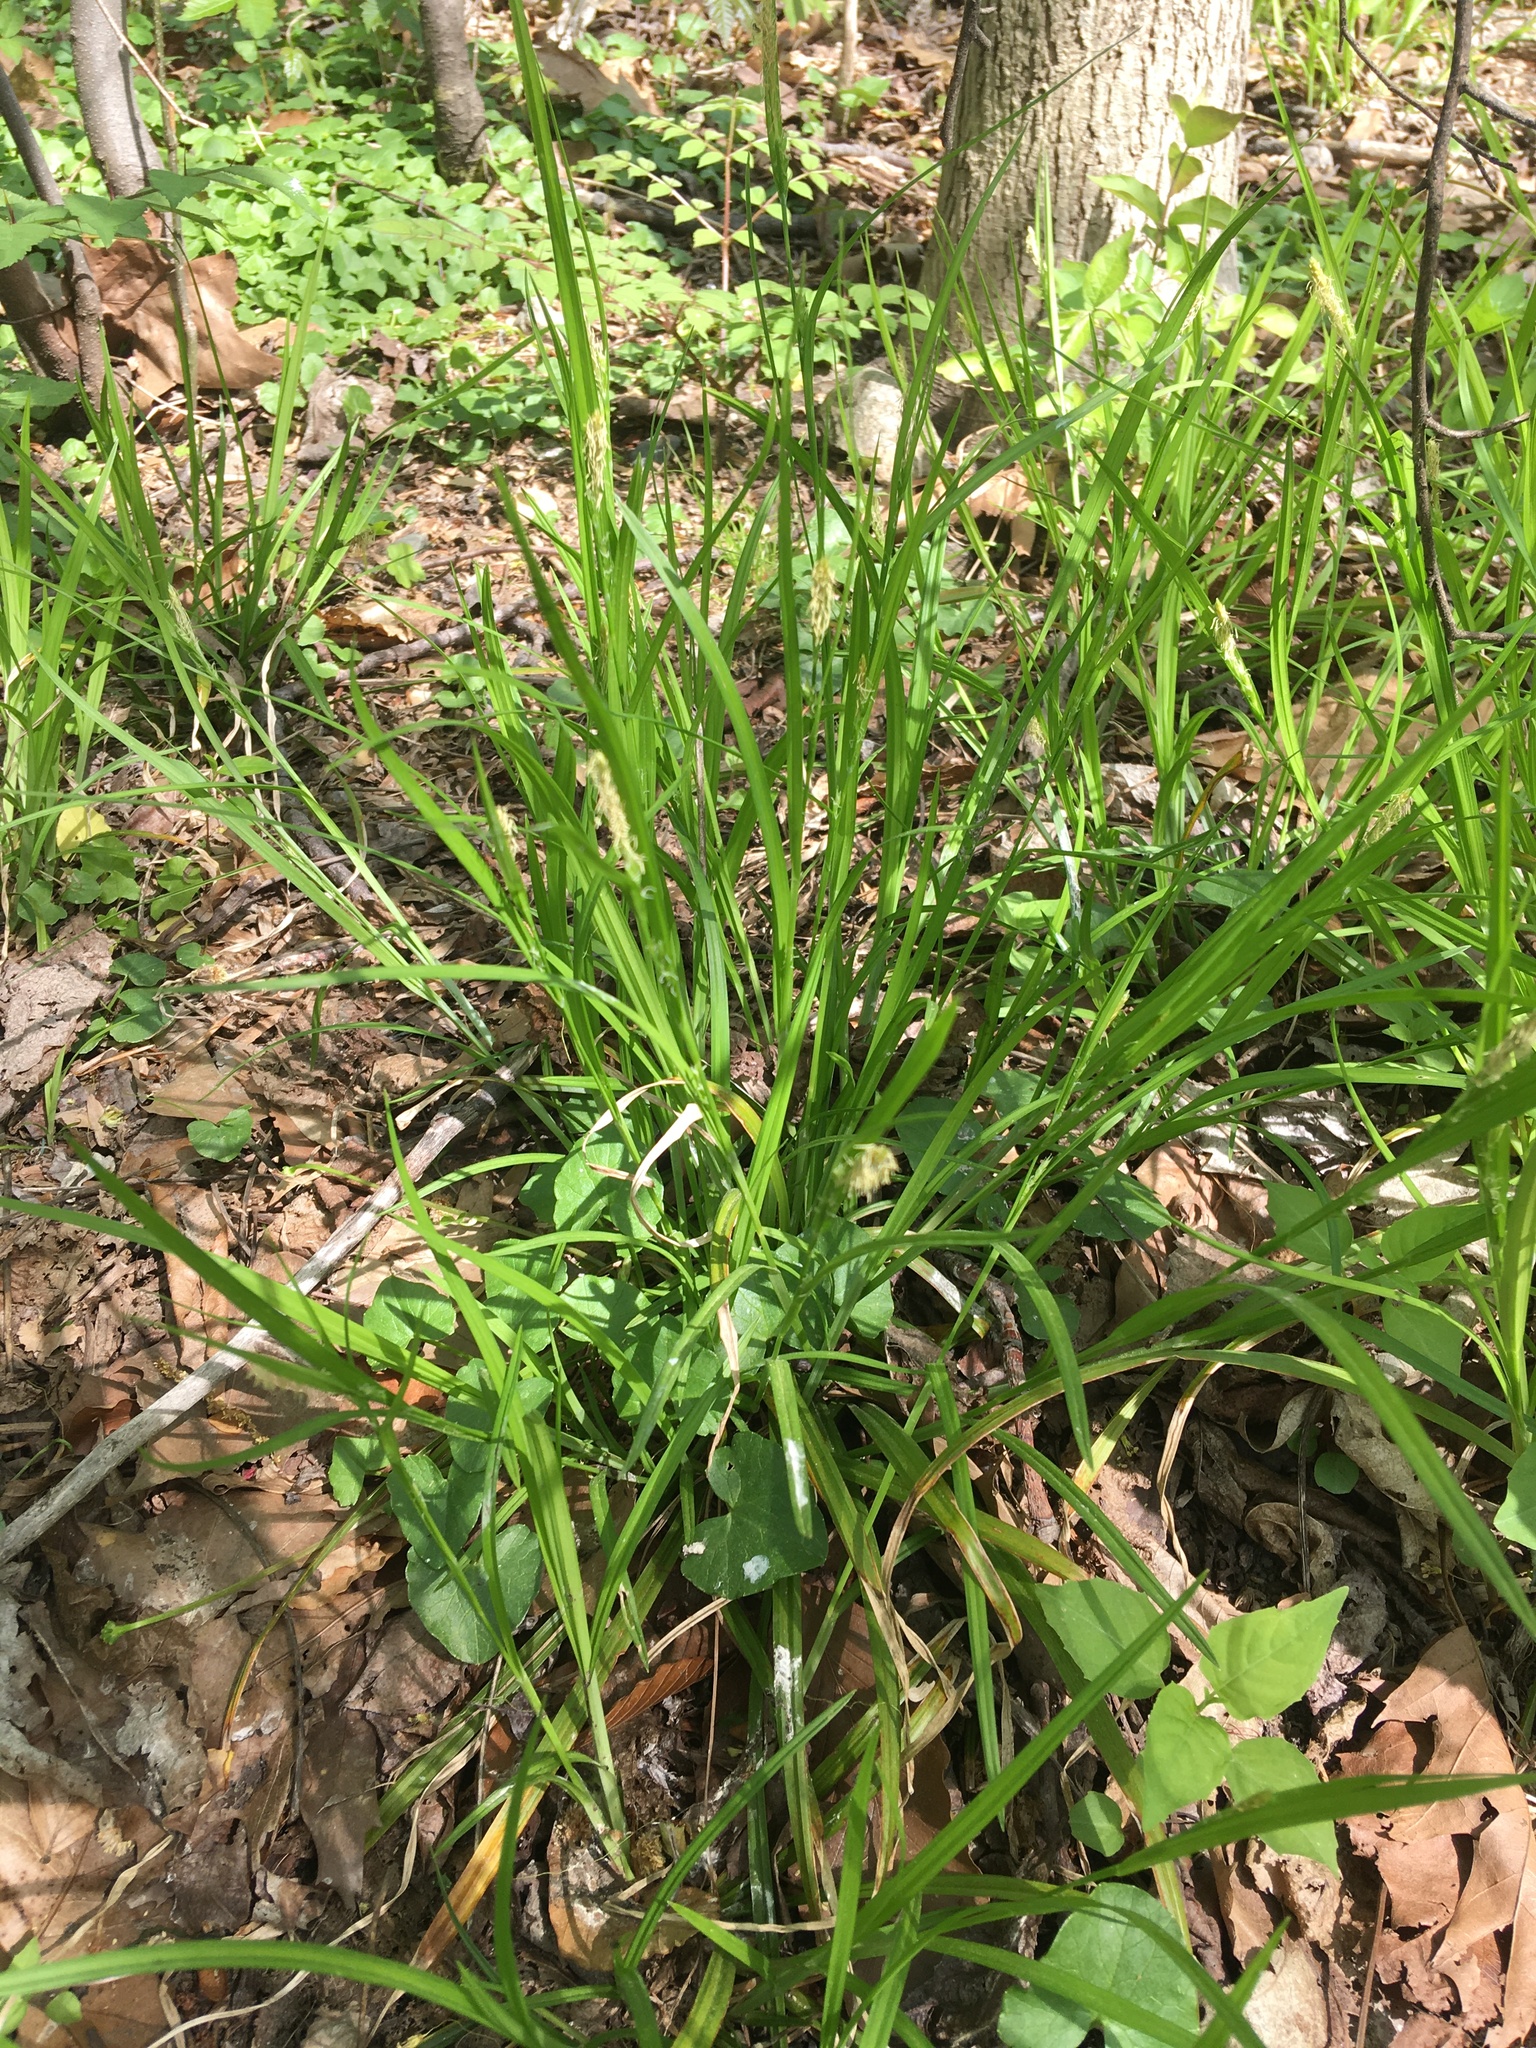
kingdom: Plantae
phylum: Tracheophyta
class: Liliopsida
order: Poales
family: Cyperaceae
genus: Carex
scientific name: Carex blanda
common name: Bland sedge
